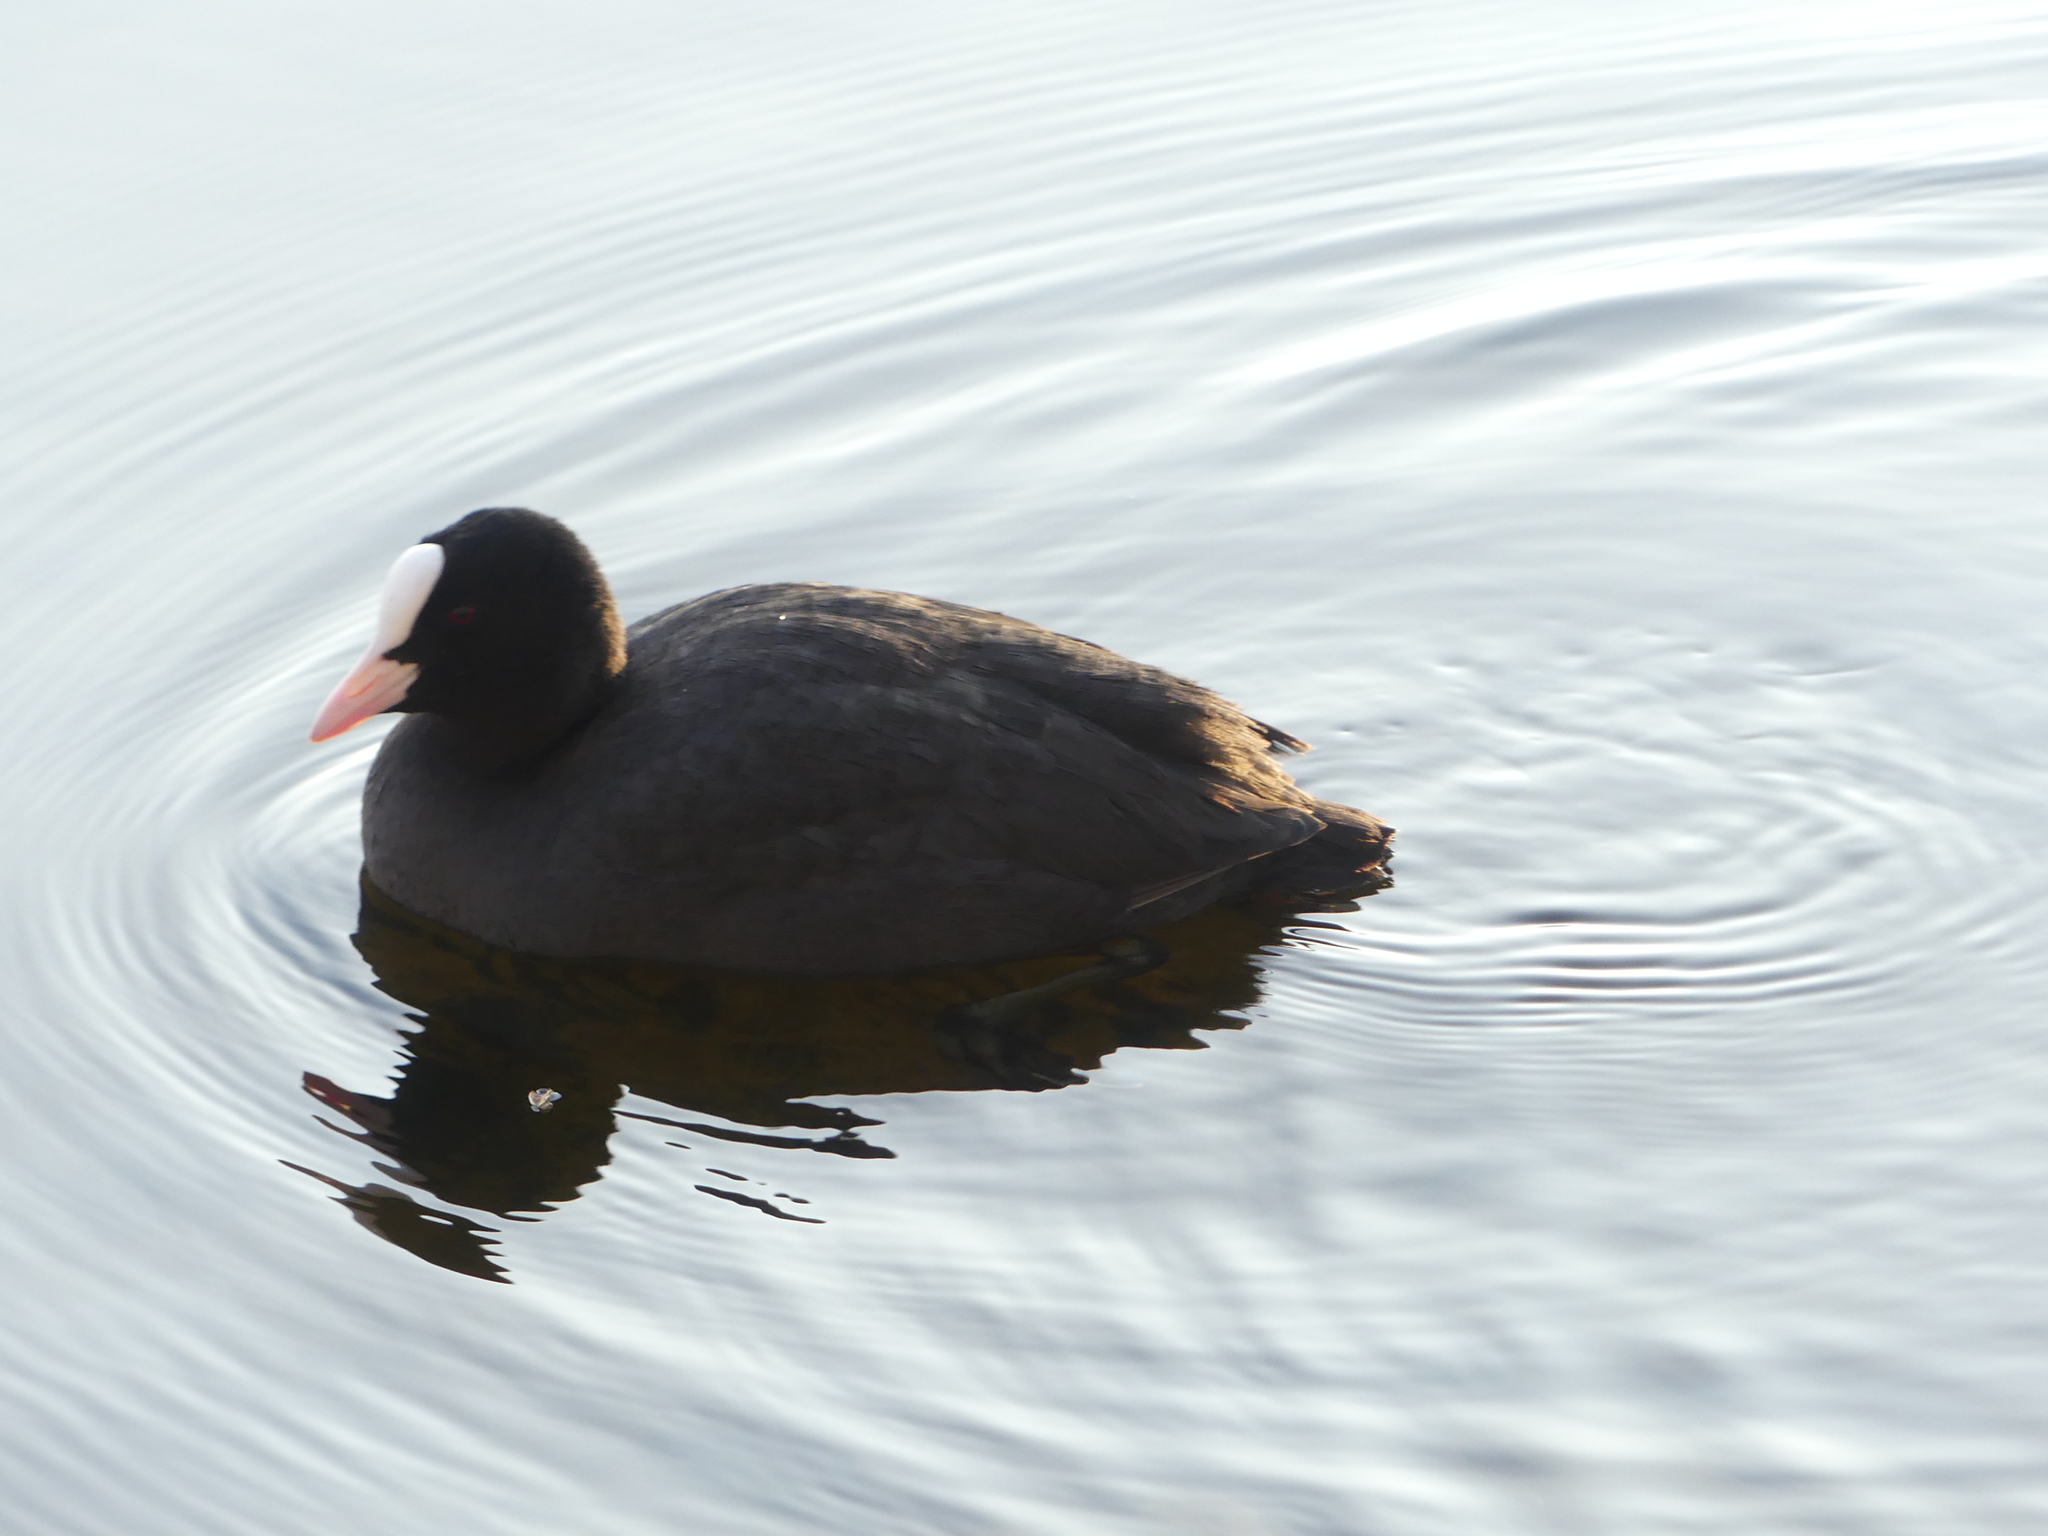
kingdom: Animalia
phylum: Chordata
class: Aves
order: Gruiformes
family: Rallidae
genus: Fulica
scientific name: Fulica atra
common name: Eurasian coot
